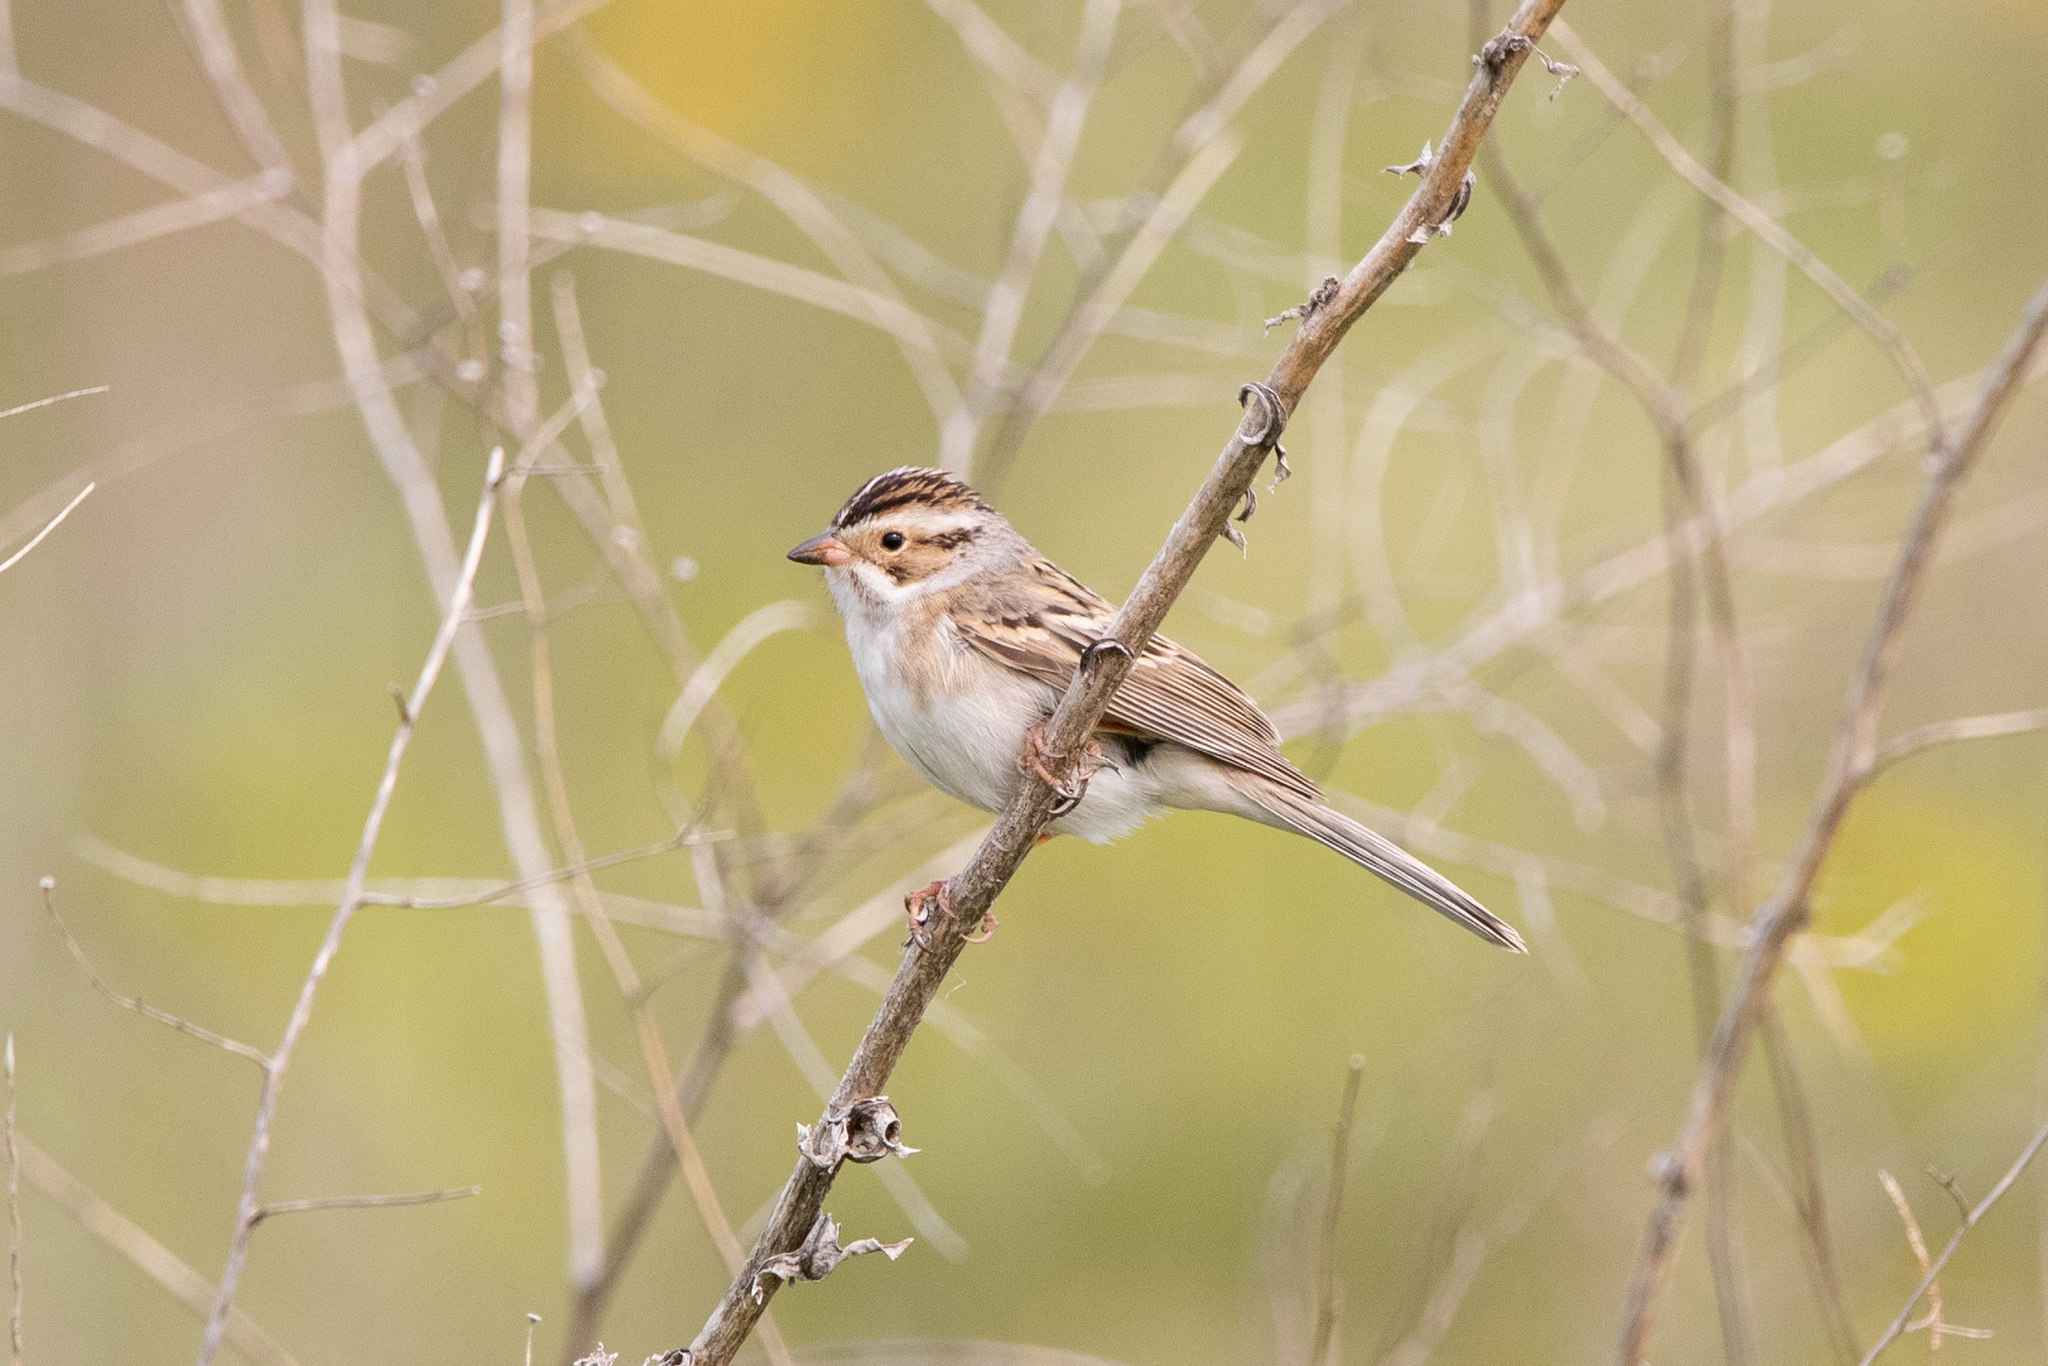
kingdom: Animalia
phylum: Chordata
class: Aves
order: Passeriformes
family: Passerellidae
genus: Spizella
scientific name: Spizella pallida
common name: Clay-colored sparrow
